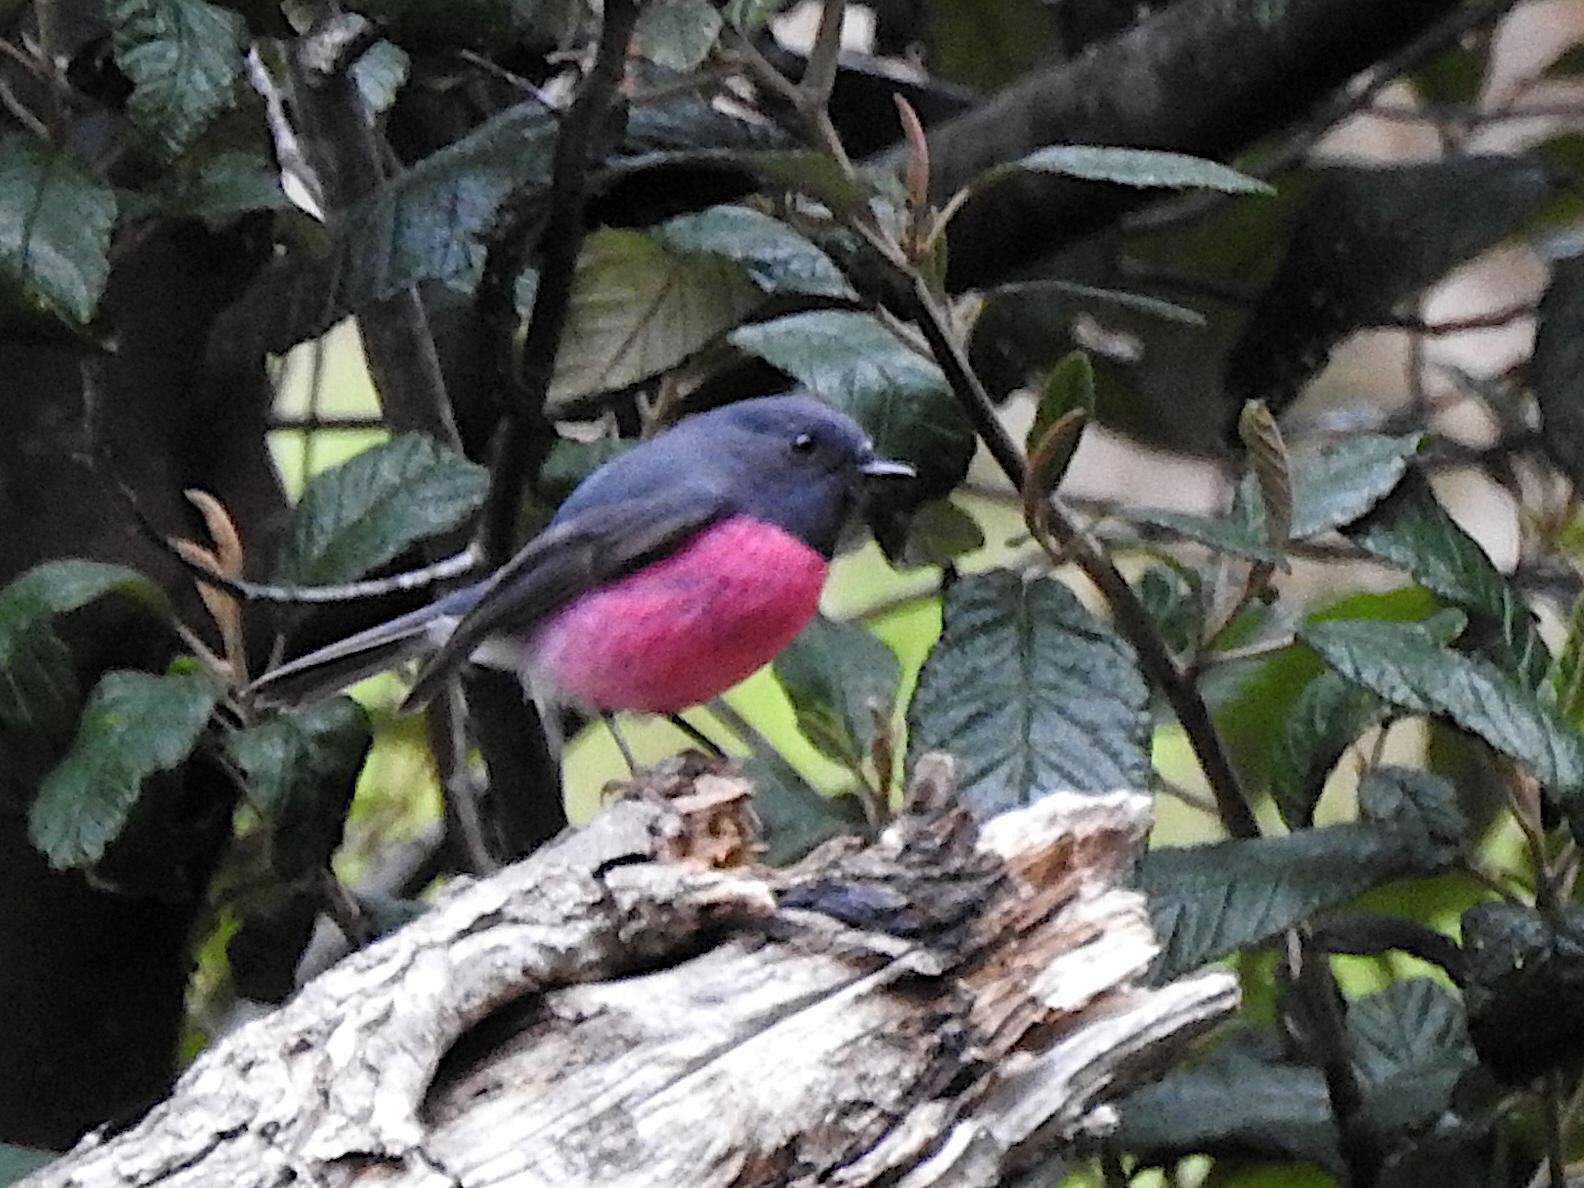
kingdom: Animalia
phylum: Chordata
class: Aves
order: Passeriformes
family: Petroicidae
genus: Petroica
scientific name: Petroica rodinogaster
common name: Pink robin
